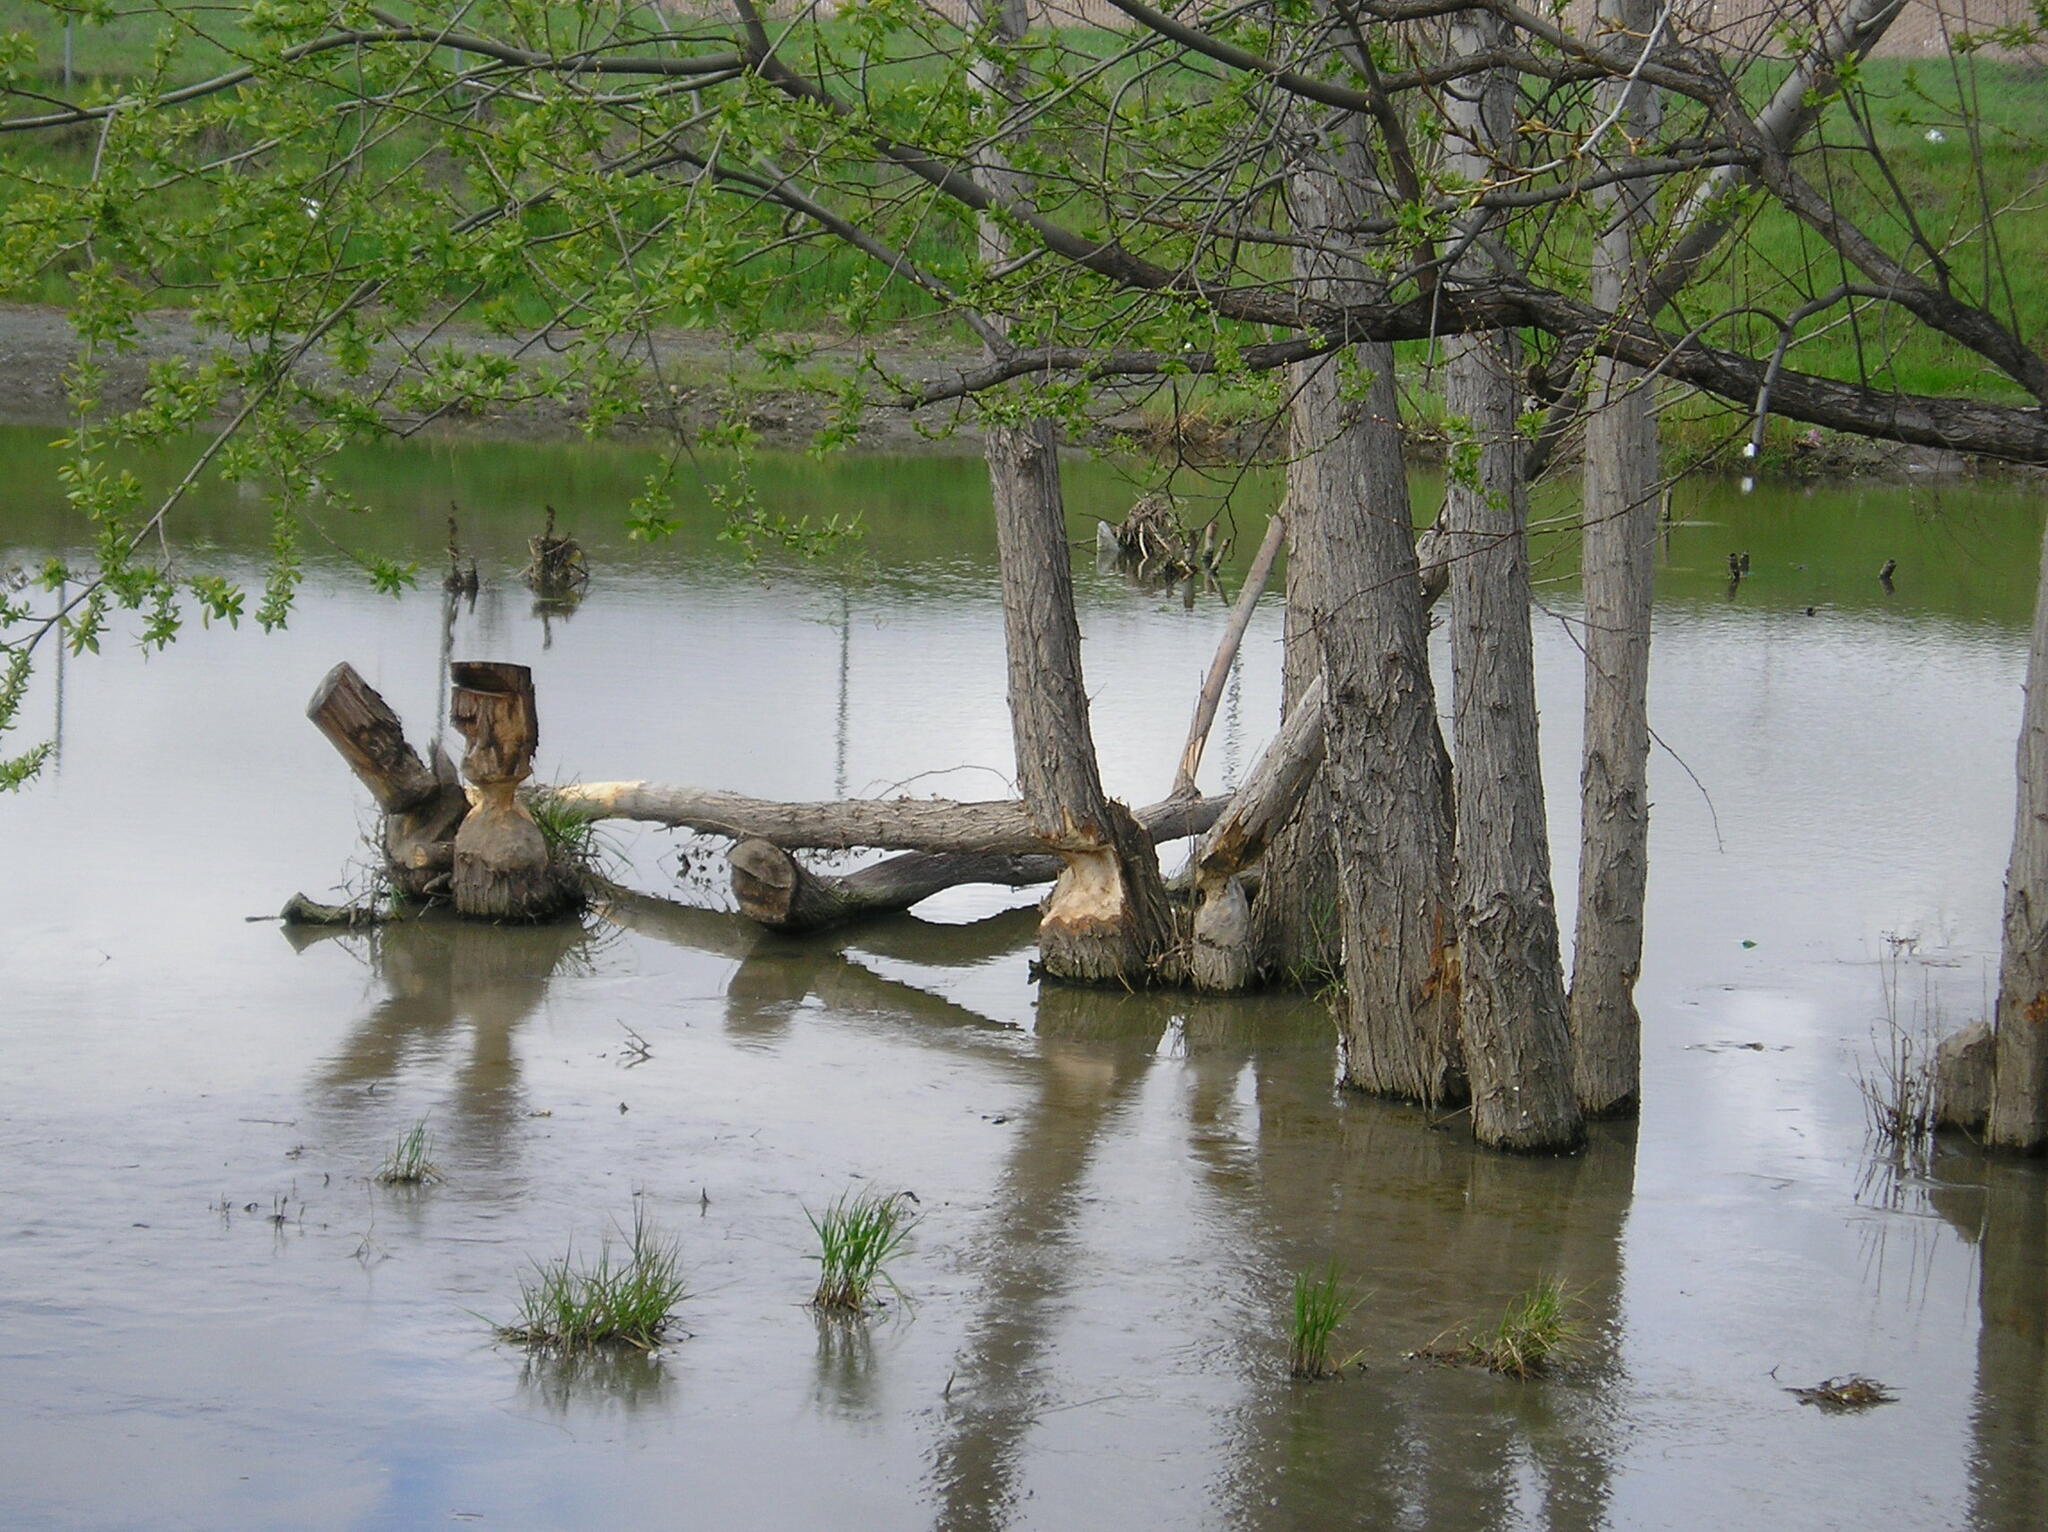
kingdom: Animalia
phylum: Chordata
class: Mammalia
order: Rodentia
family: Castoridae
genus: Castor
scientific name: Castor canadensis
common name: American beaver
